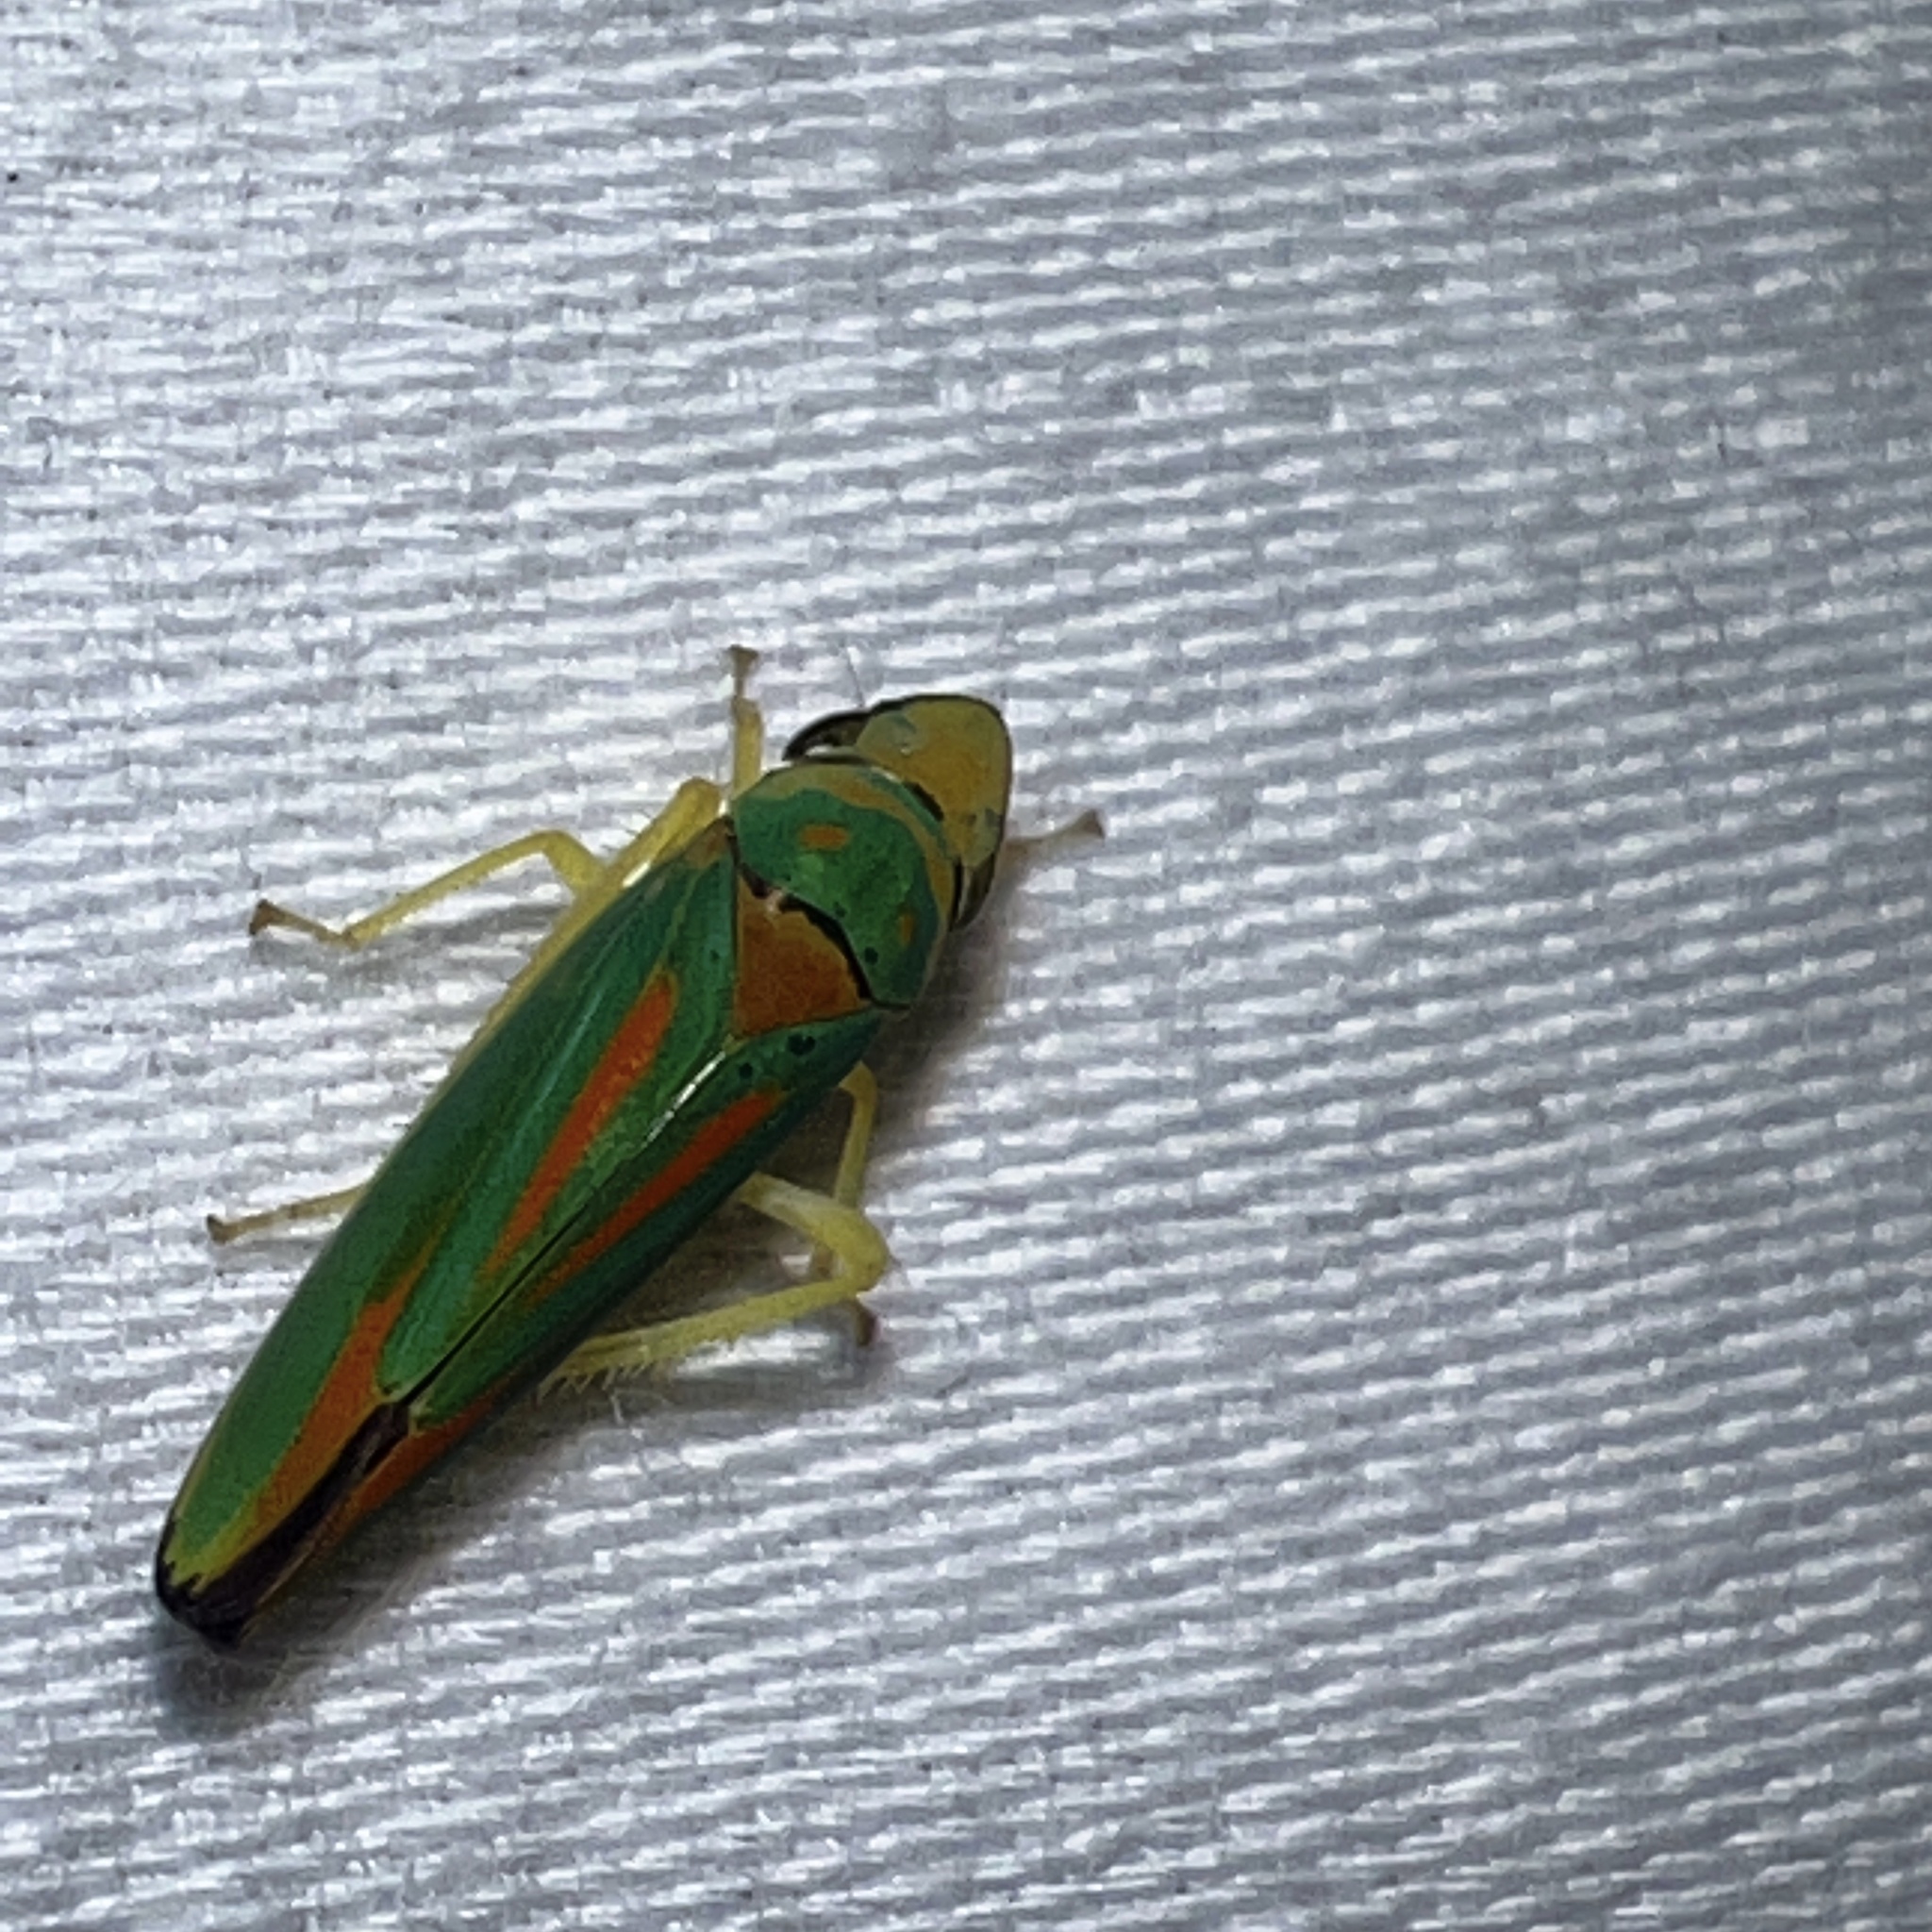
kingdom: Animalia
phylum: Arthropoda
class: Insecta
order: Hemiptera
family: Cicadellidae
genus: Graphocephala
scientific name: Graphocephala fennahi
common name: Rhododendron leafhopper
